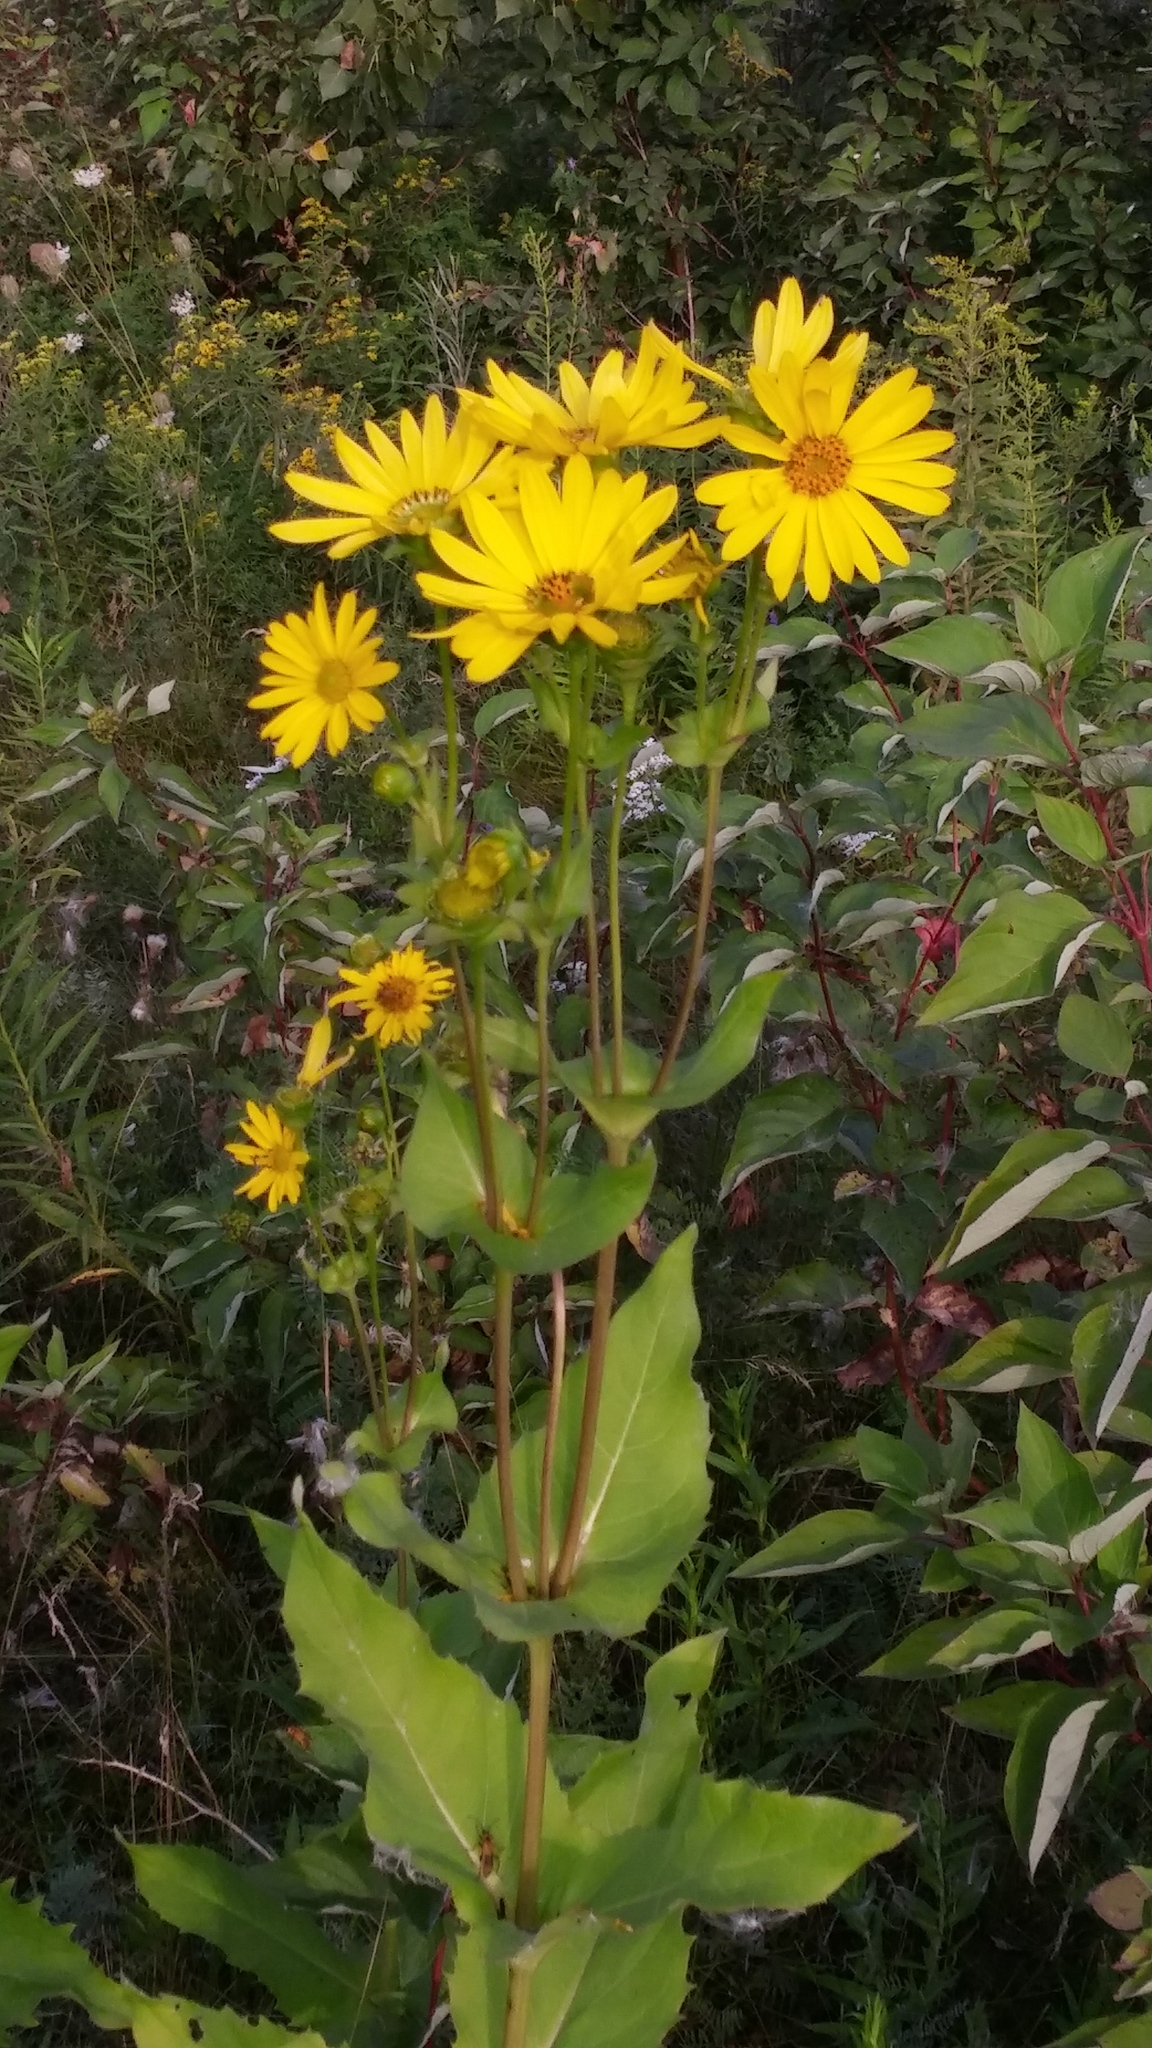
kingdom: Plantae
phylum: Tracheophyta
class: Magnoliopsida
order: Asterales
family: Asteraceae
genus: Silphium
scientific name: Silphium perfoliatum
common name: Cup-plant
